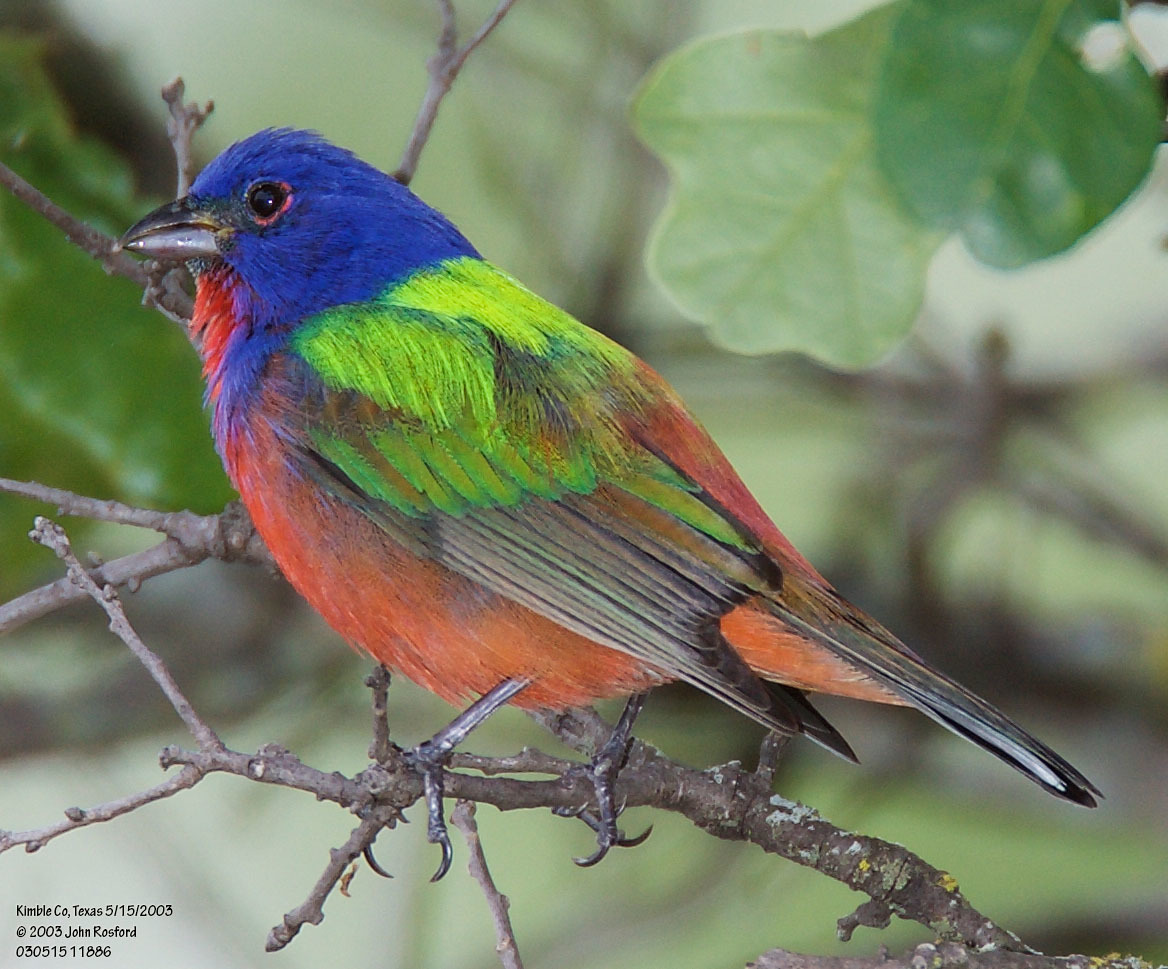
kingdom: Animalia
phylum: Chordata
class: Aves
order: Passeriformes
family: Cardinalidae
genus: Passerina
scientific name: Passerina ciris
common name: Painted bunting
